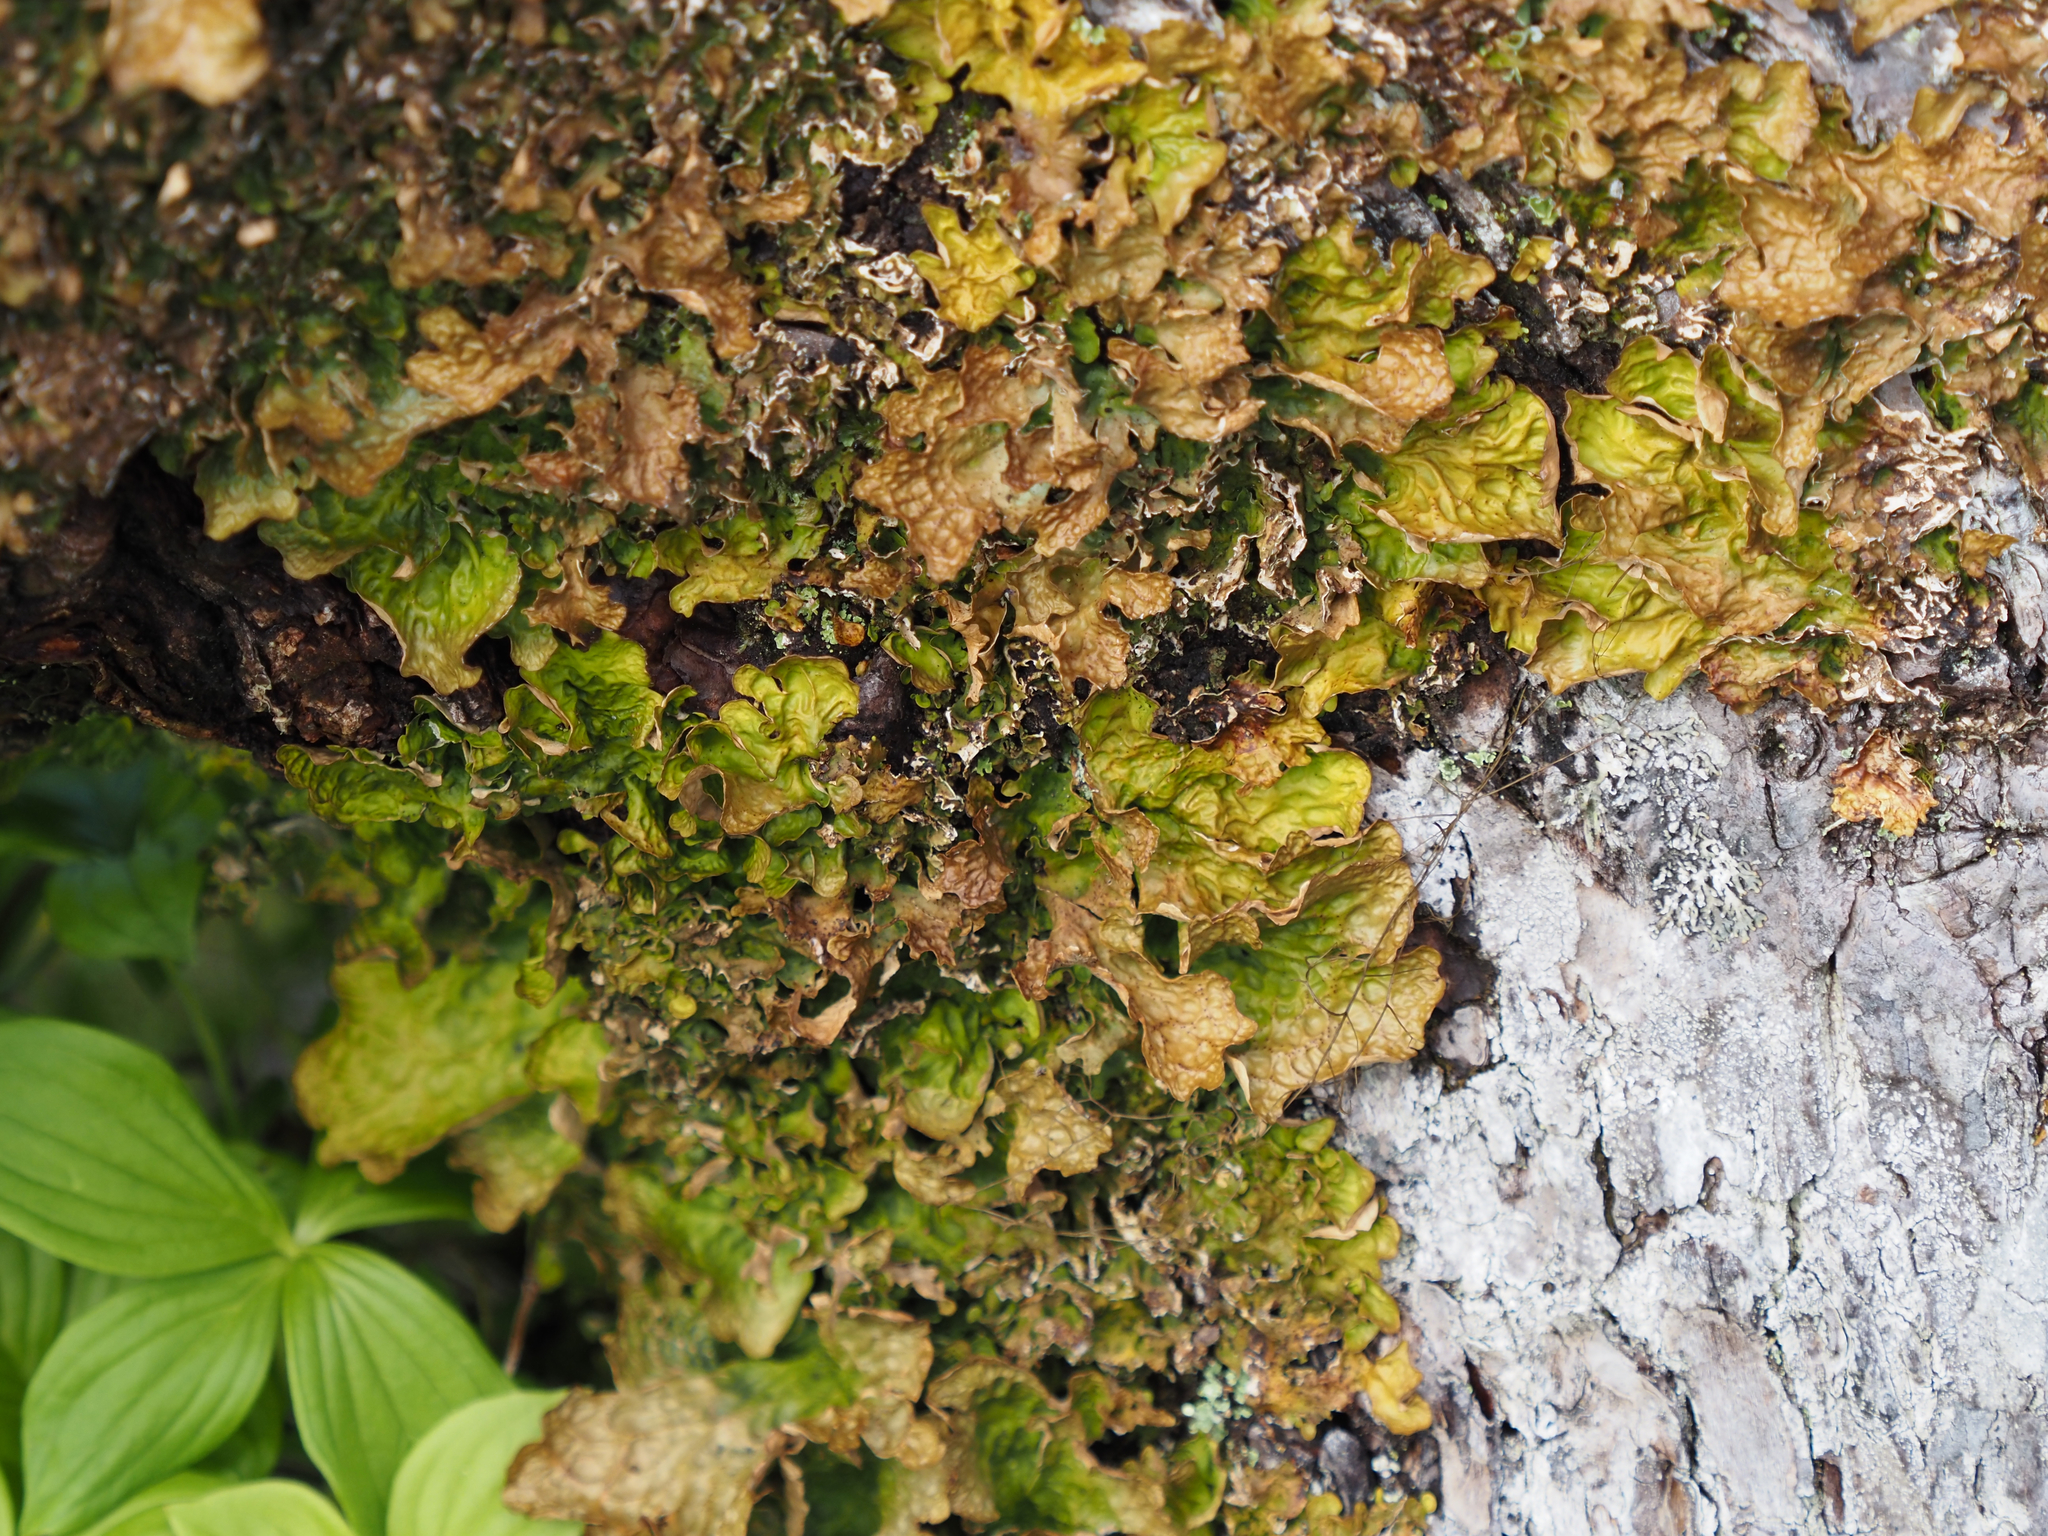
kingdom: Fungi
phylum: Ascomycota
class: Lecanoromycetes
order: Peltigerales
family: Lobariaceae
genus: Lobaria
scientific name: Lobaria linita
